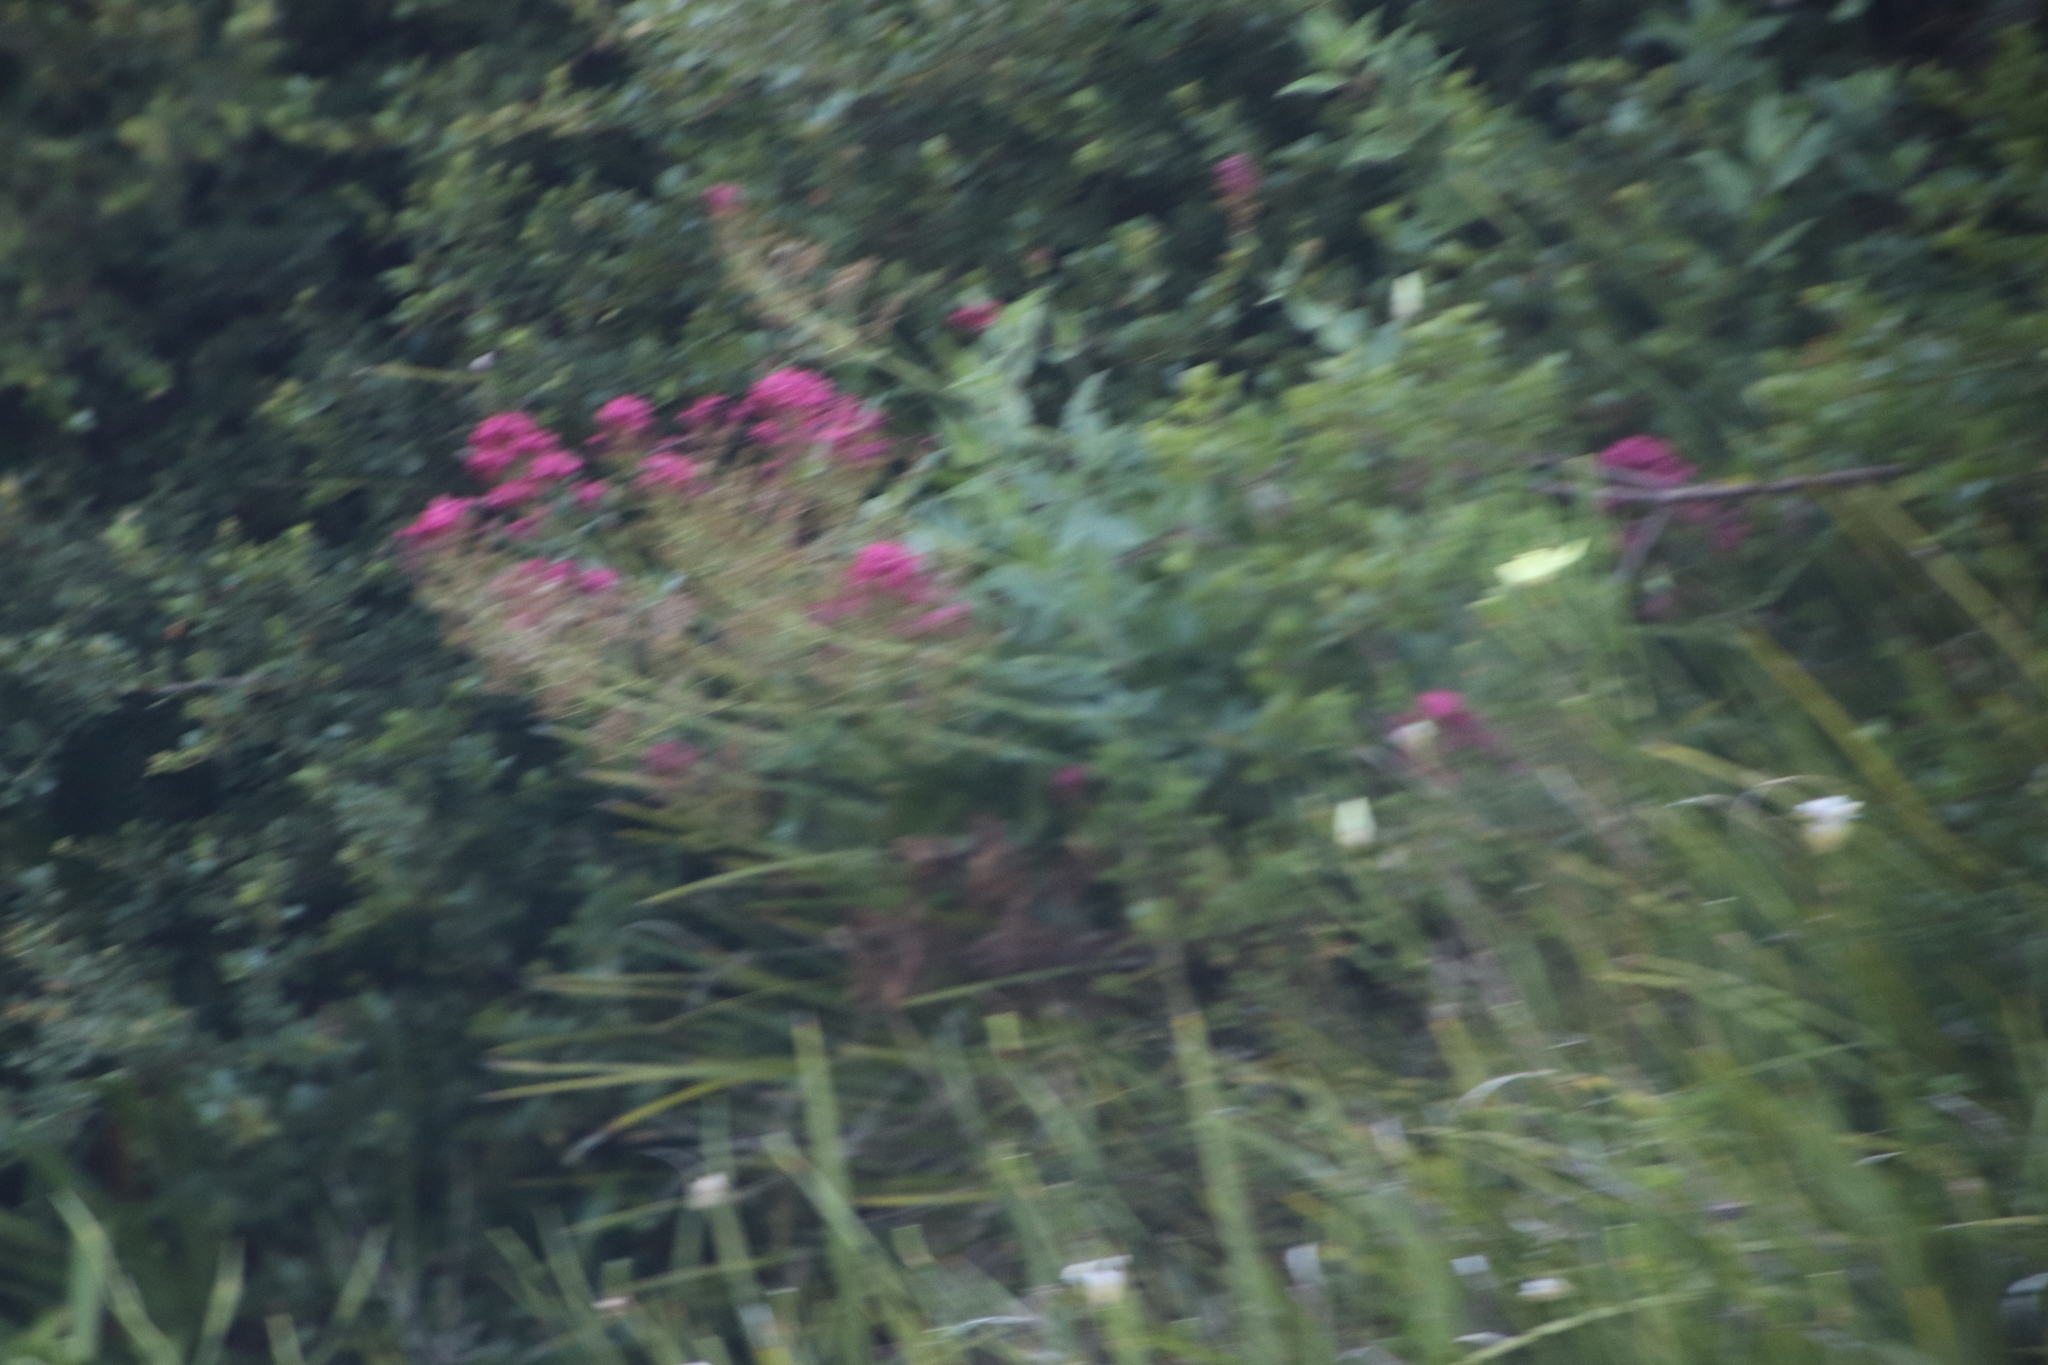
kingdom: Plantae
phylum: Tracheophyta
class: Magnoliopsida
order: Dipsacales
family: Caprifoliaceae
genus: Centranthus
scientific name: Centranthus ruber
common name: Red valerian
